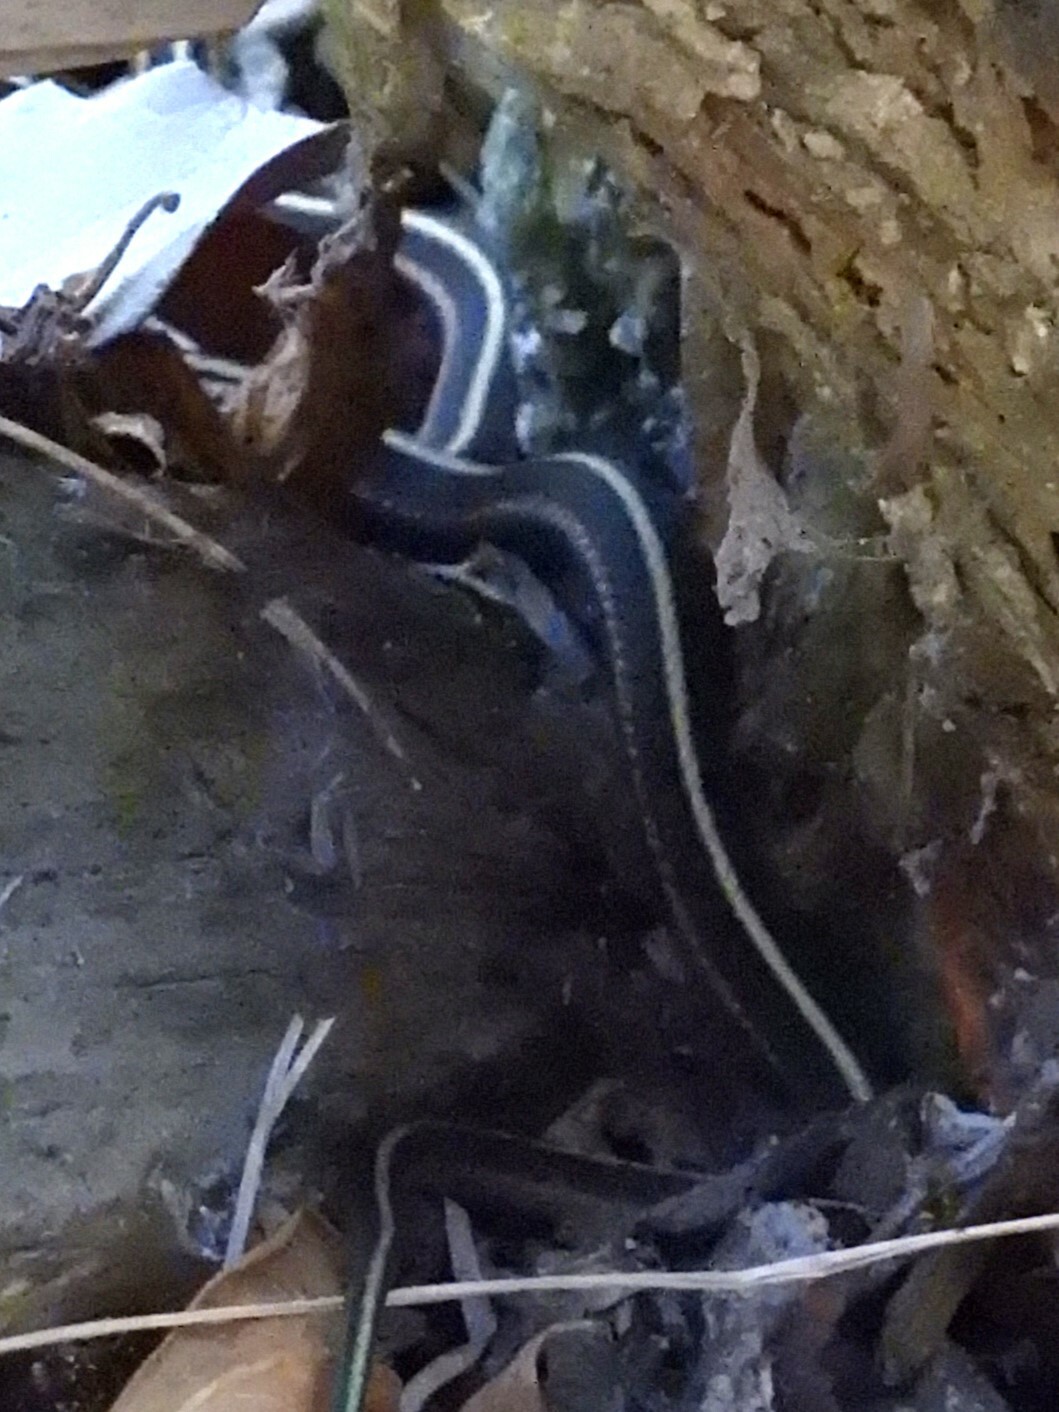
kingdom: Animalia
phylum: Chordata
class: Squamata
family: Colubridae
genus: Thamnophis
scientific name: Thamnophis elegans
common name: Western terrestrial garter snake
